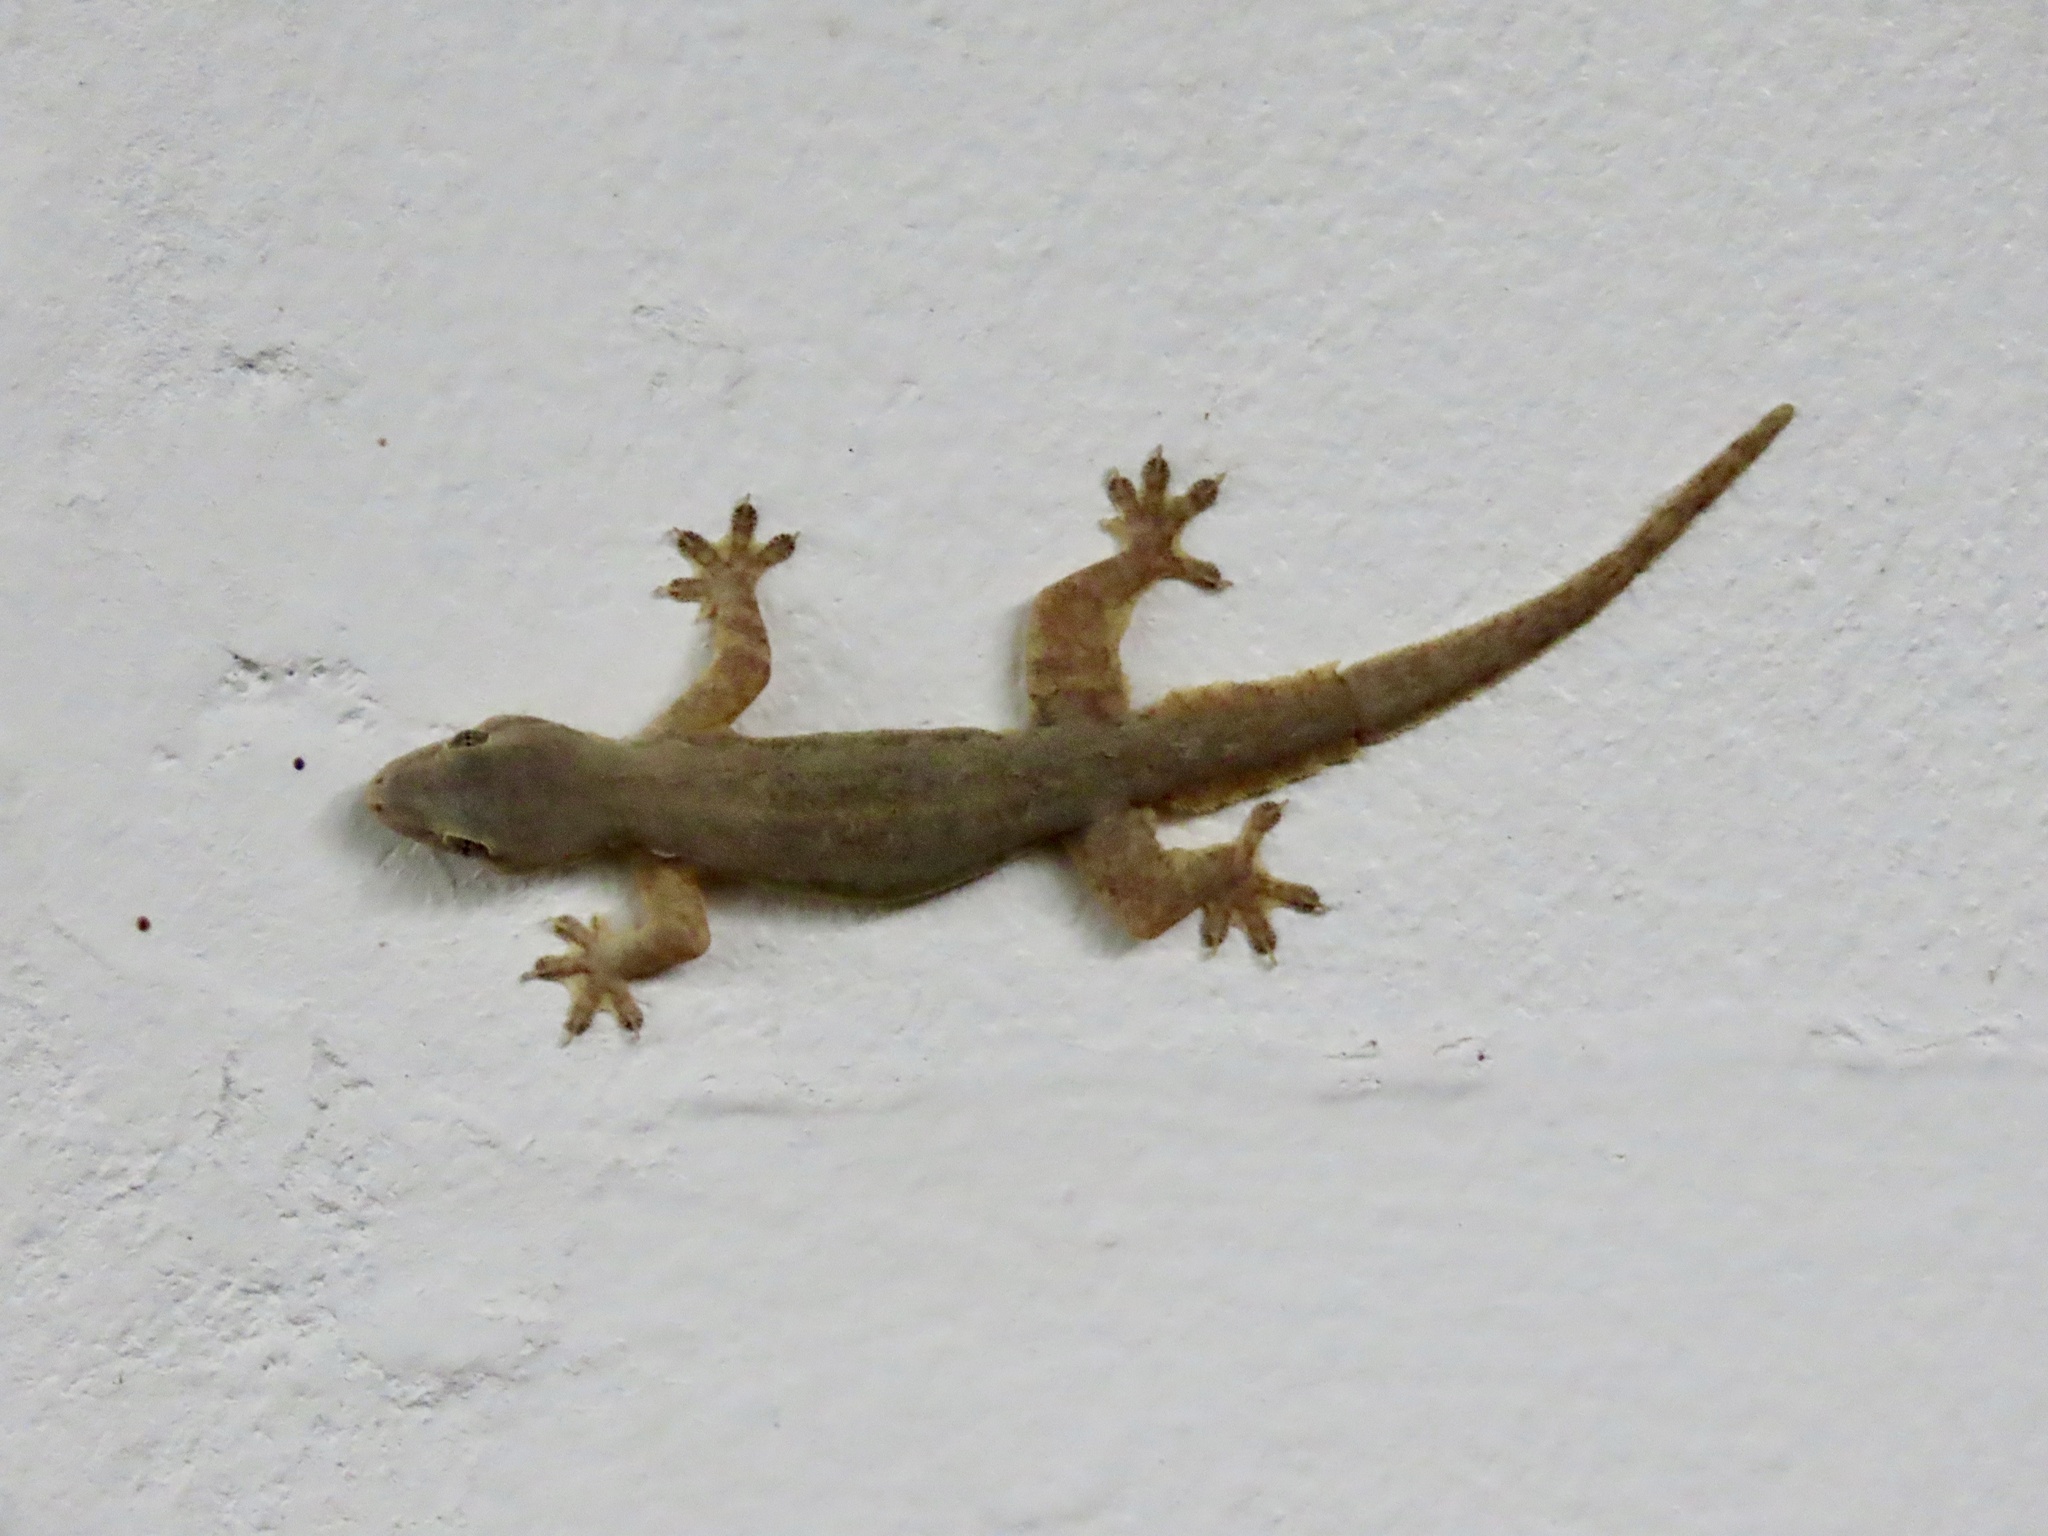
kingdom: Animalia
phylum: Chordata
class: Squamata
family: Gekkonidae
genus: Hemidactylus
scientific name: Hemidactylus platyurus
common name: Flat-tailed house gecko
